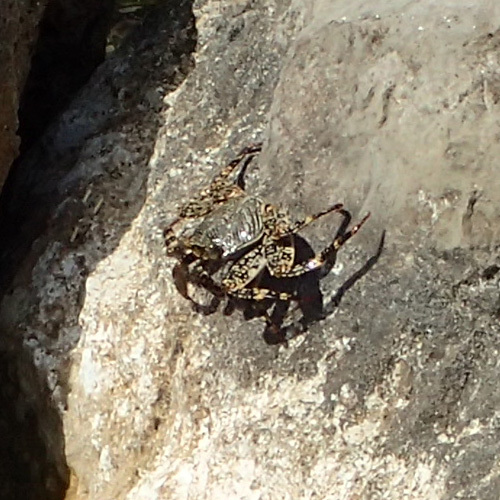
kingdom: Animalia
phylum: Arthropoda
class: Malacostraca
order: Decapoda
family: Grapsidae
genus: Grapsus
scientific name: Grapsus grapsus
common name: Sally lightfoot
